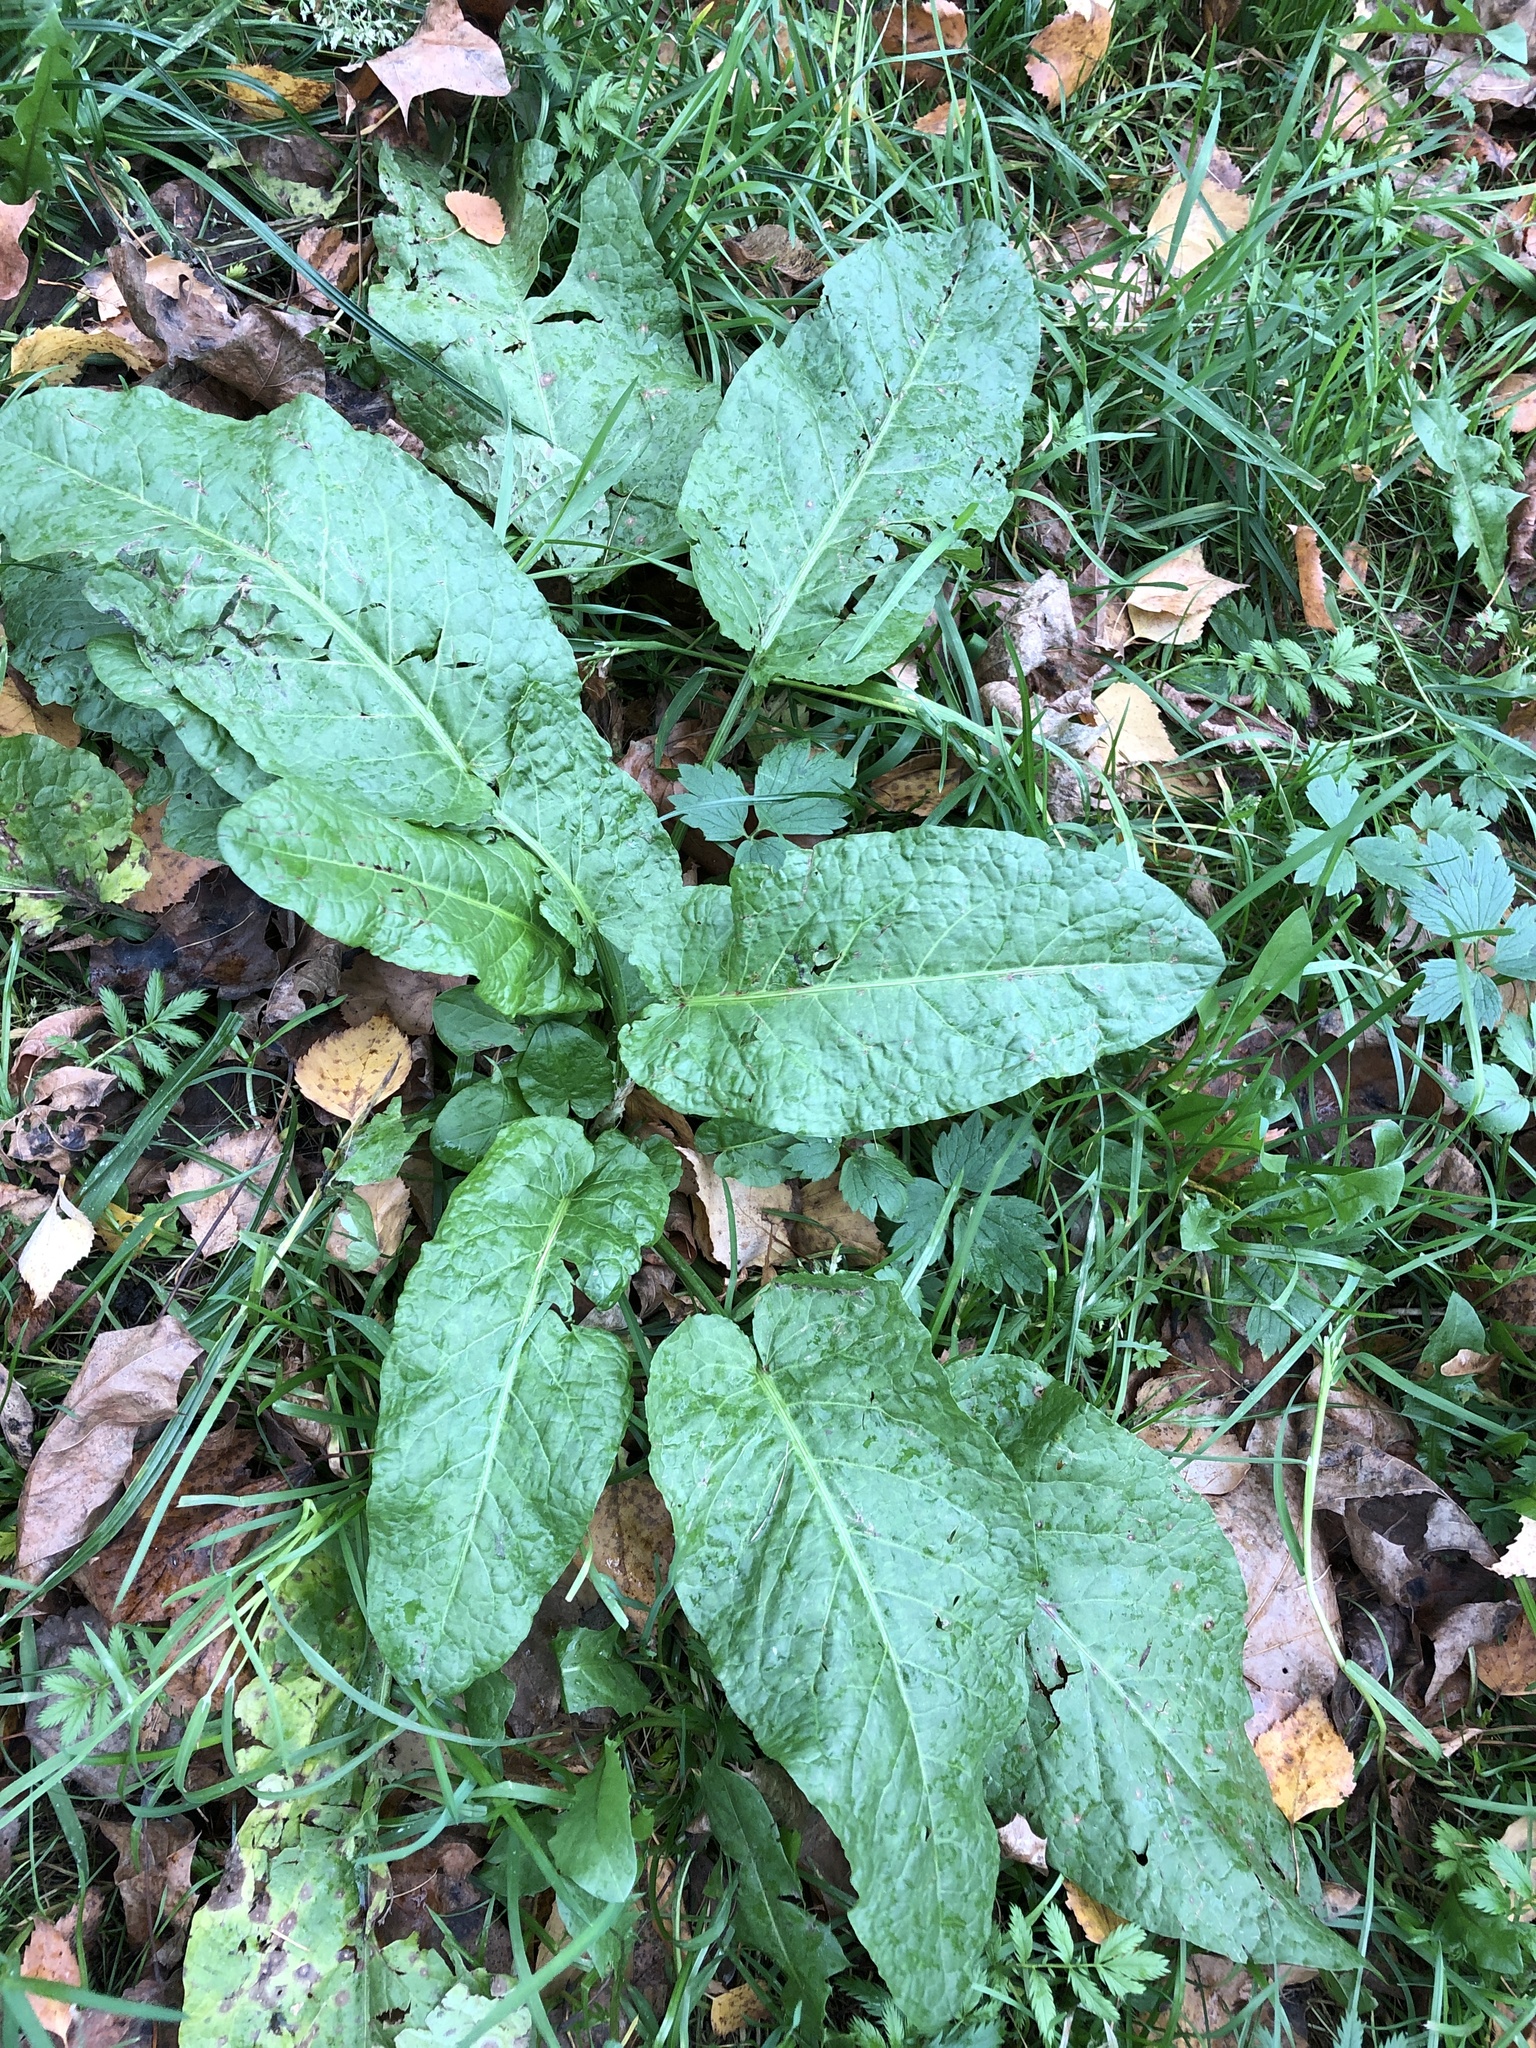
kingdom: Plantae
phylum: Tracheophyta
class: Magnoliopsida
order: Caryophyllales
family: Polygonaceae
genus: Rumex
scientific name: Rumex obtusifolius
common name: Bitter dock
